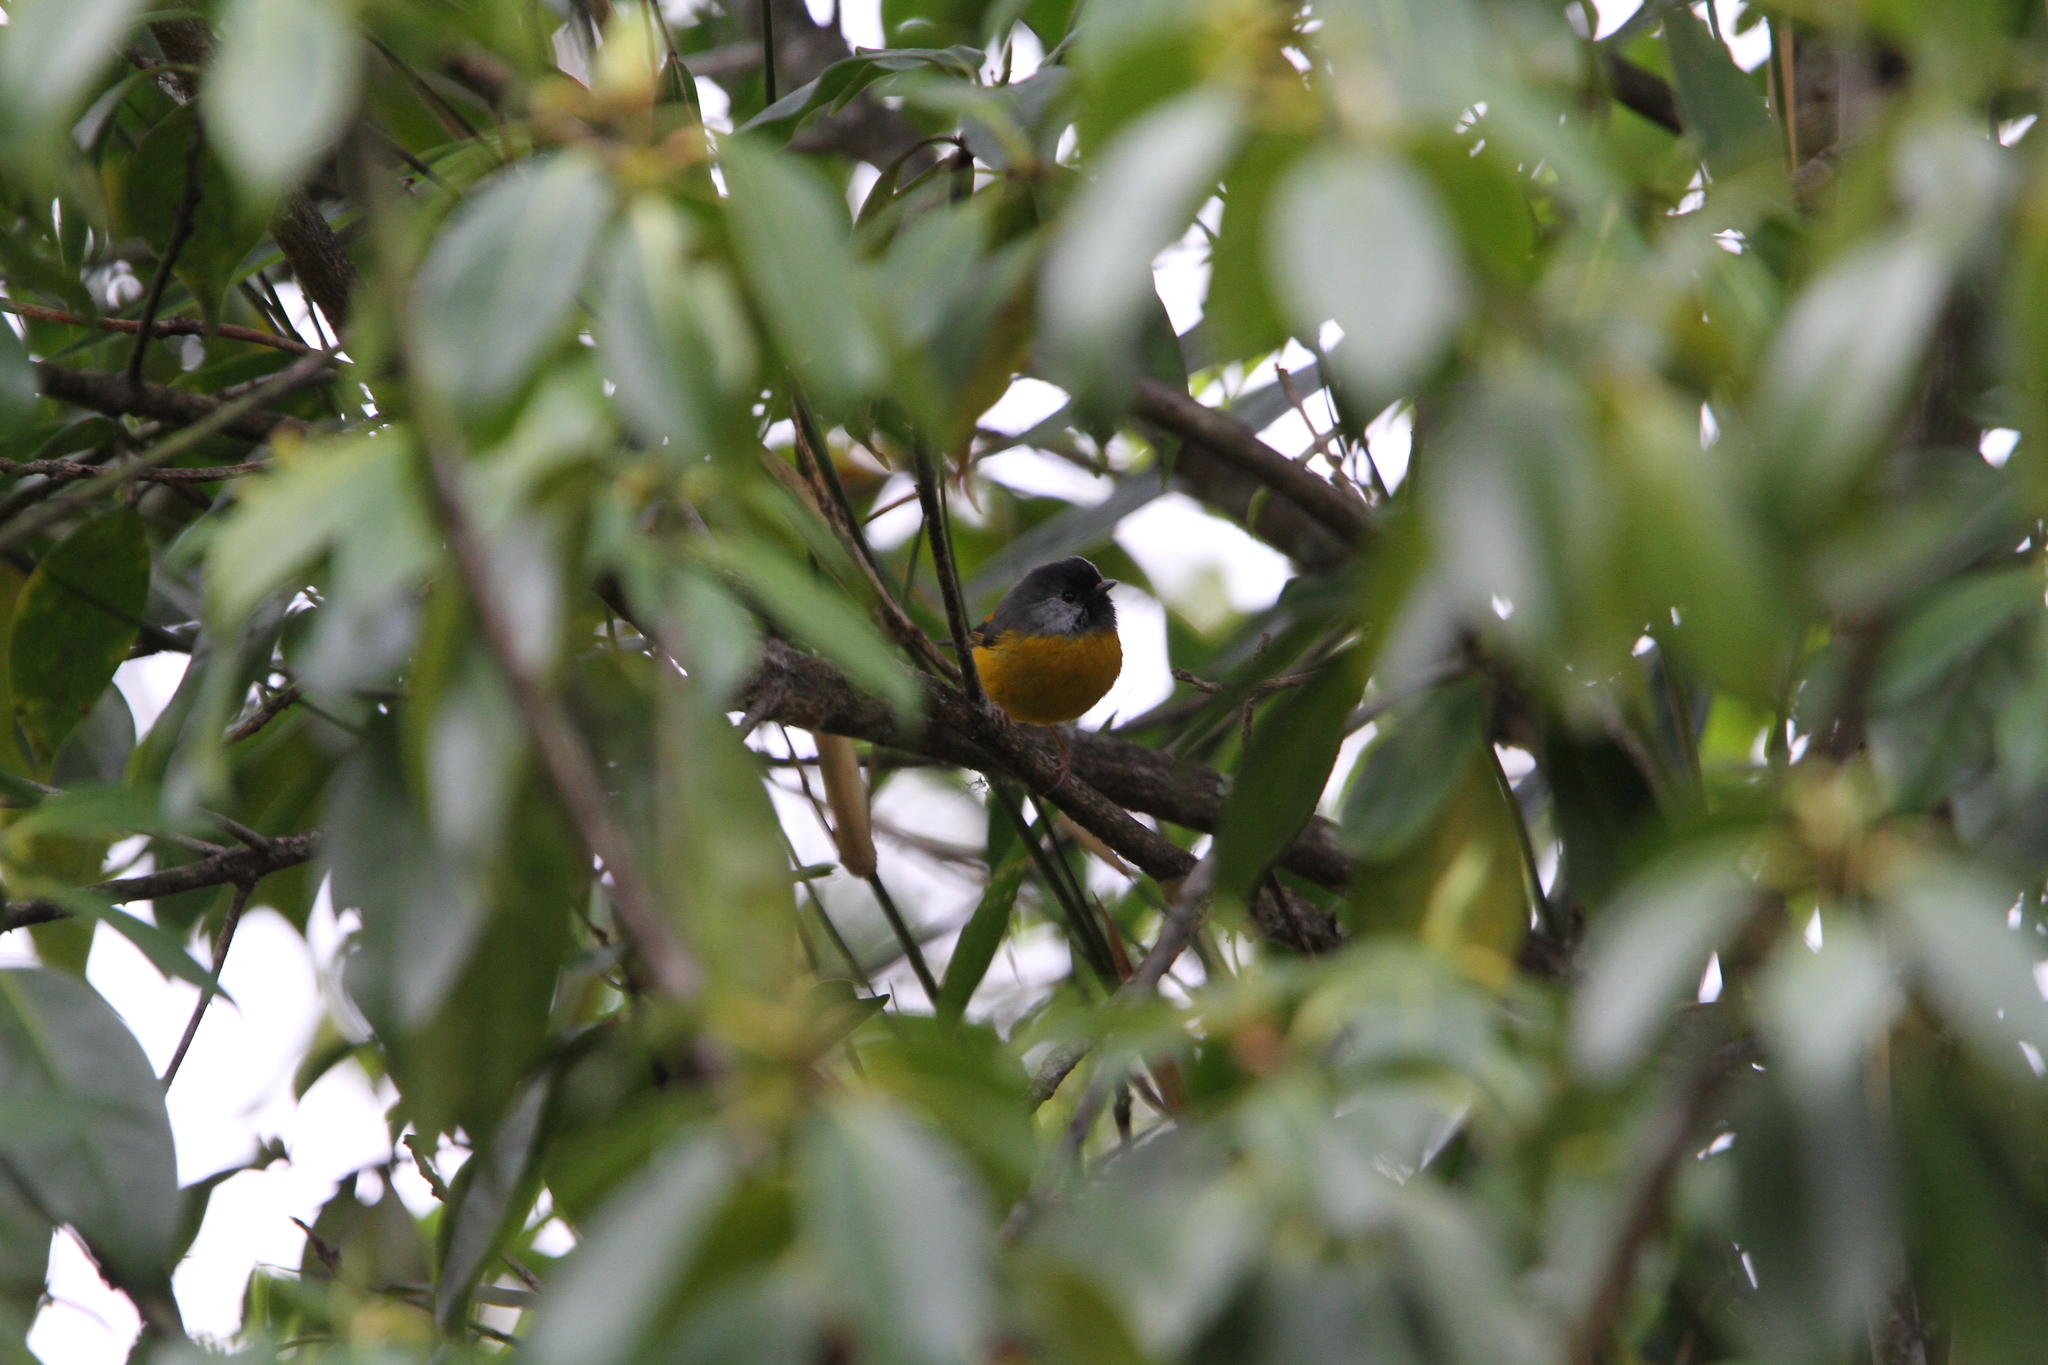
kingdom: Animalia
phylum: Chordata
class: Aves
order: Passeriformes
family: Sylviidae
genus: Lioparus
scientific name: Lioparus chrysotis
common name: Golden-breasted fulvetta
